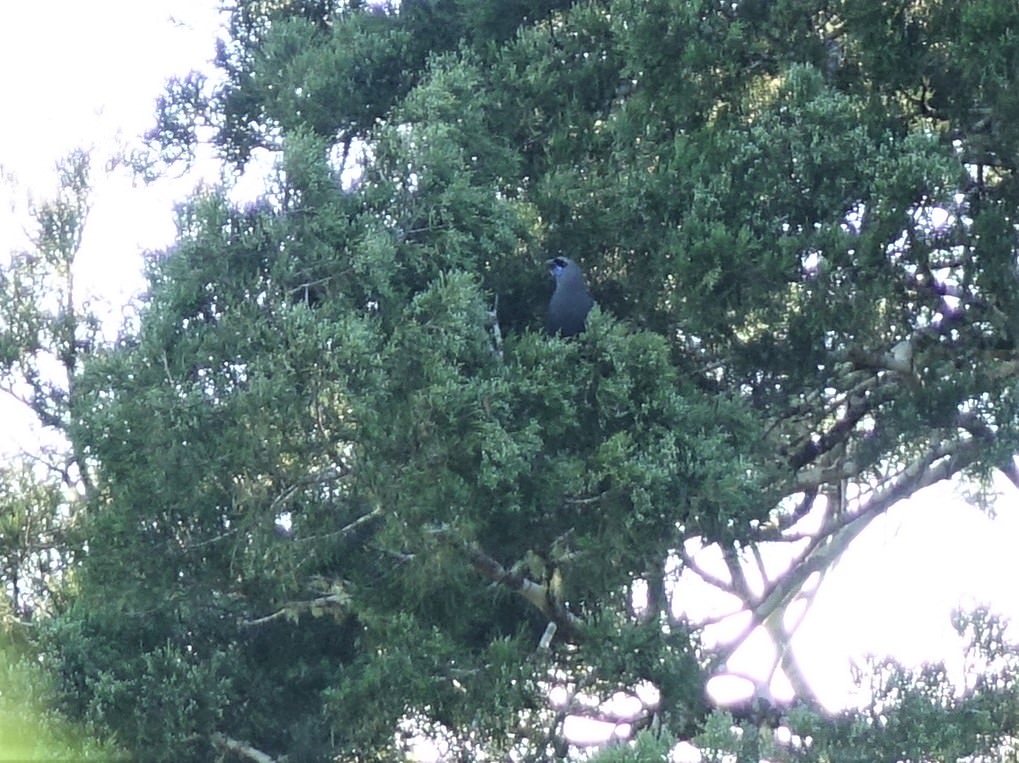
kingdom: Animalia
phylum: Chordata
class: Aves
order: Passeriformes
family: Callaeatidae
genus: Callaeas
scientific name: Callaeas cinereus
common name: South island kokako
